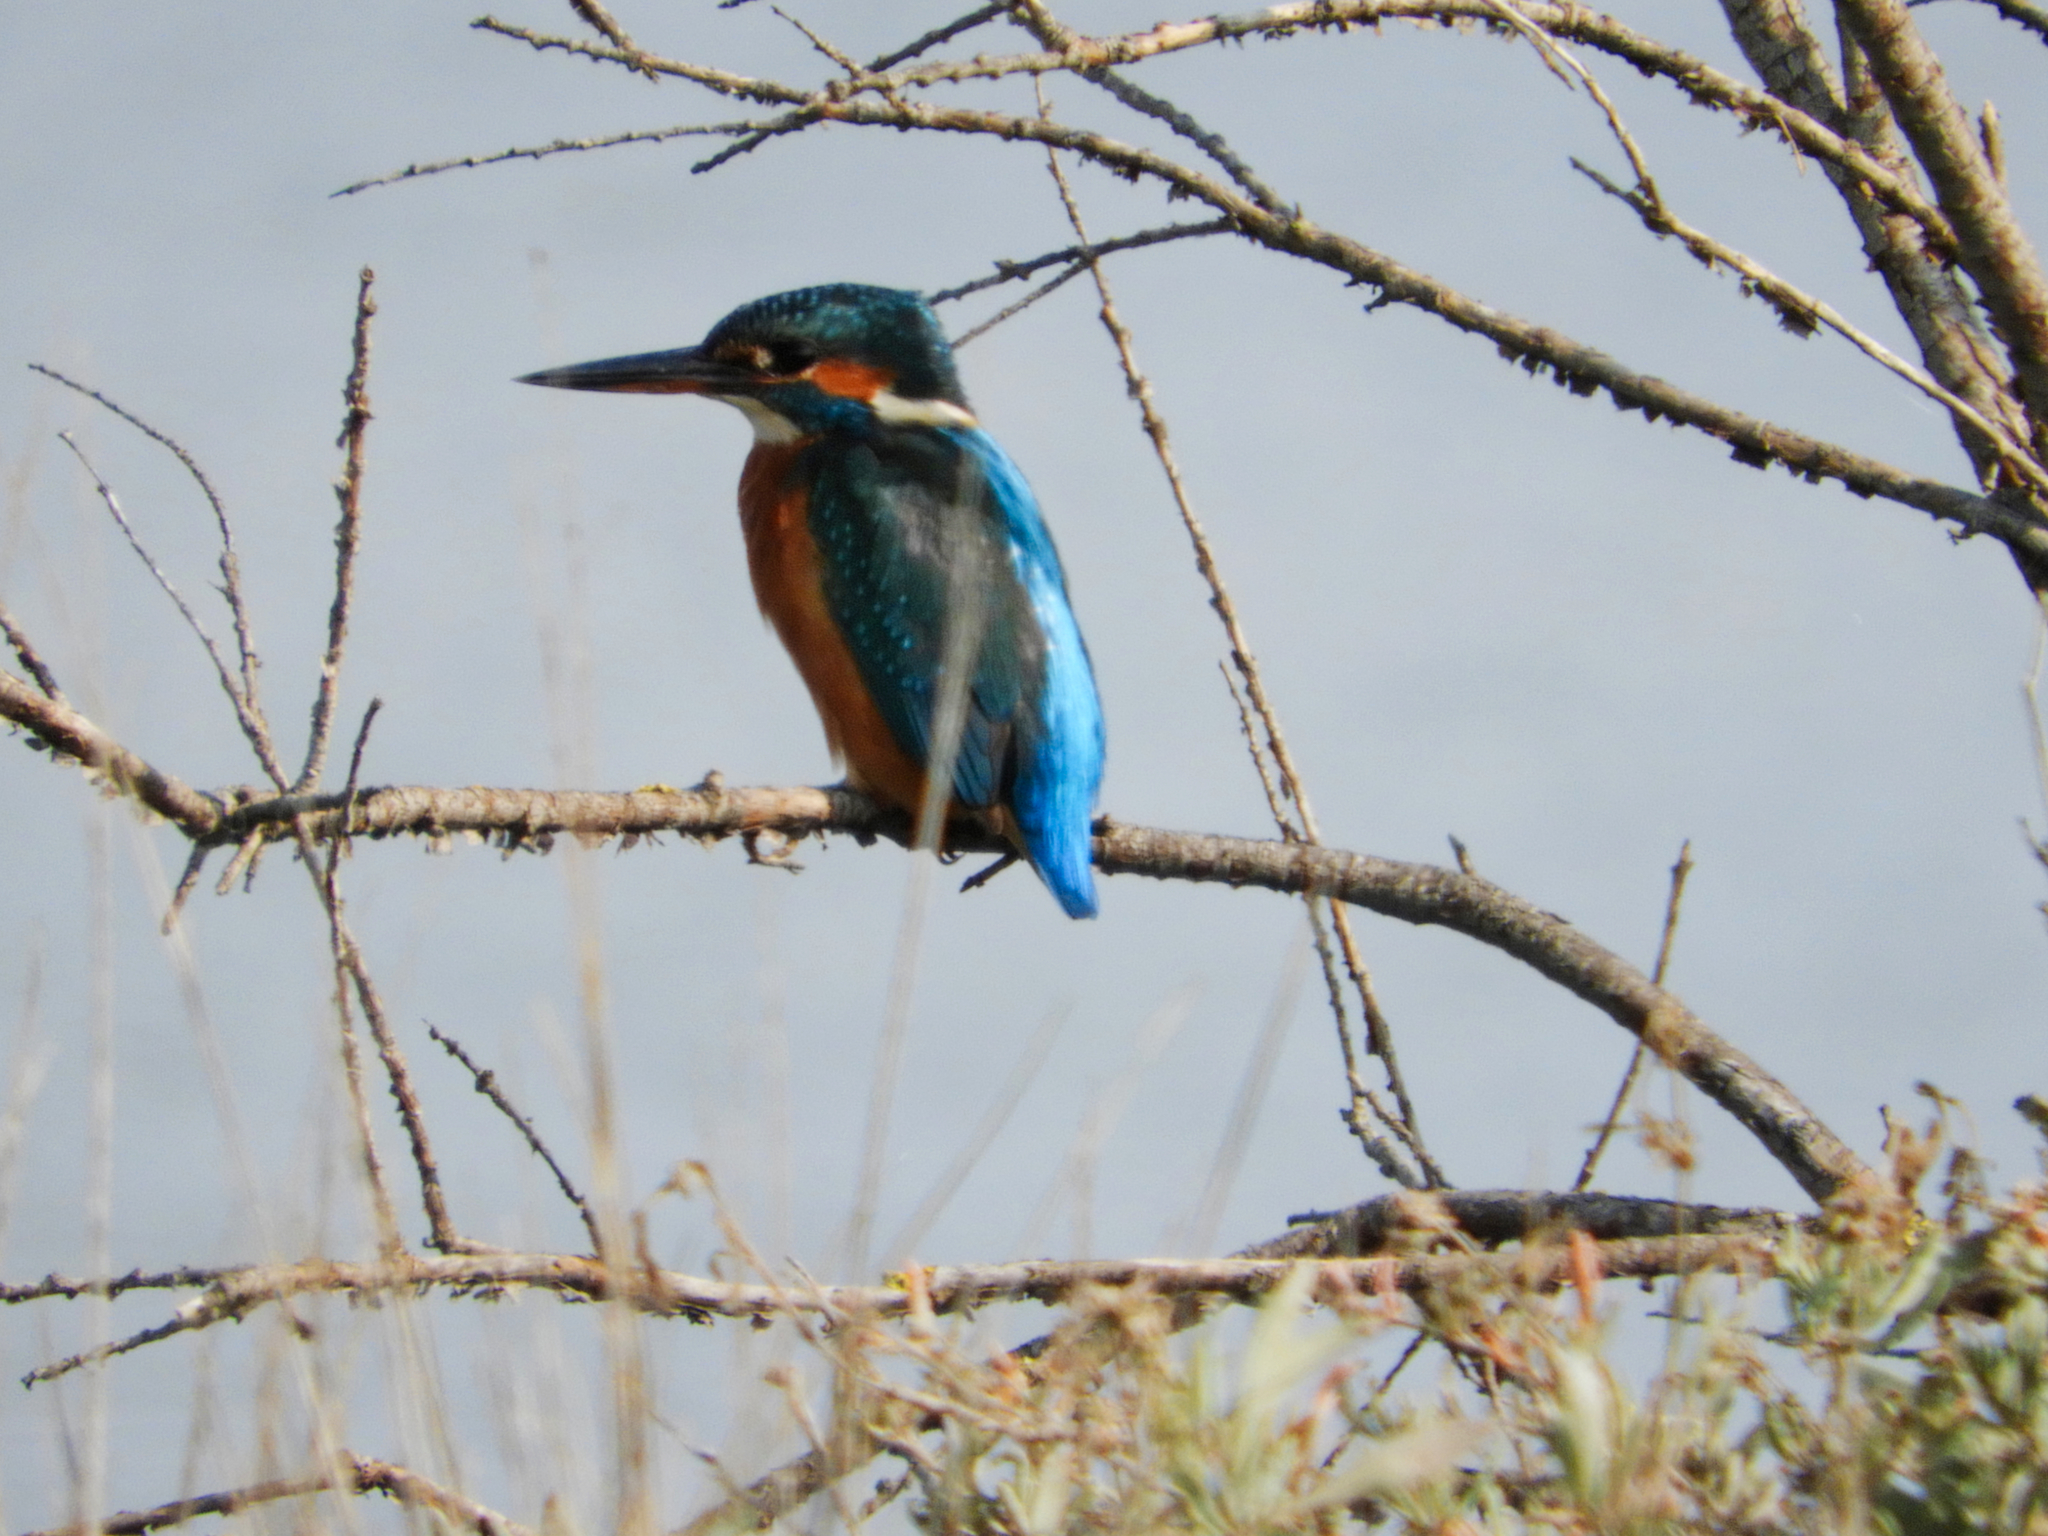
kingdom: Animalia
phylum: Chordata
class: Aves
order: Coraciiformes
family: Alcedinidae
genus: Alcedo
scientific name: Alcedo atthis
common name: Common kingfisher
